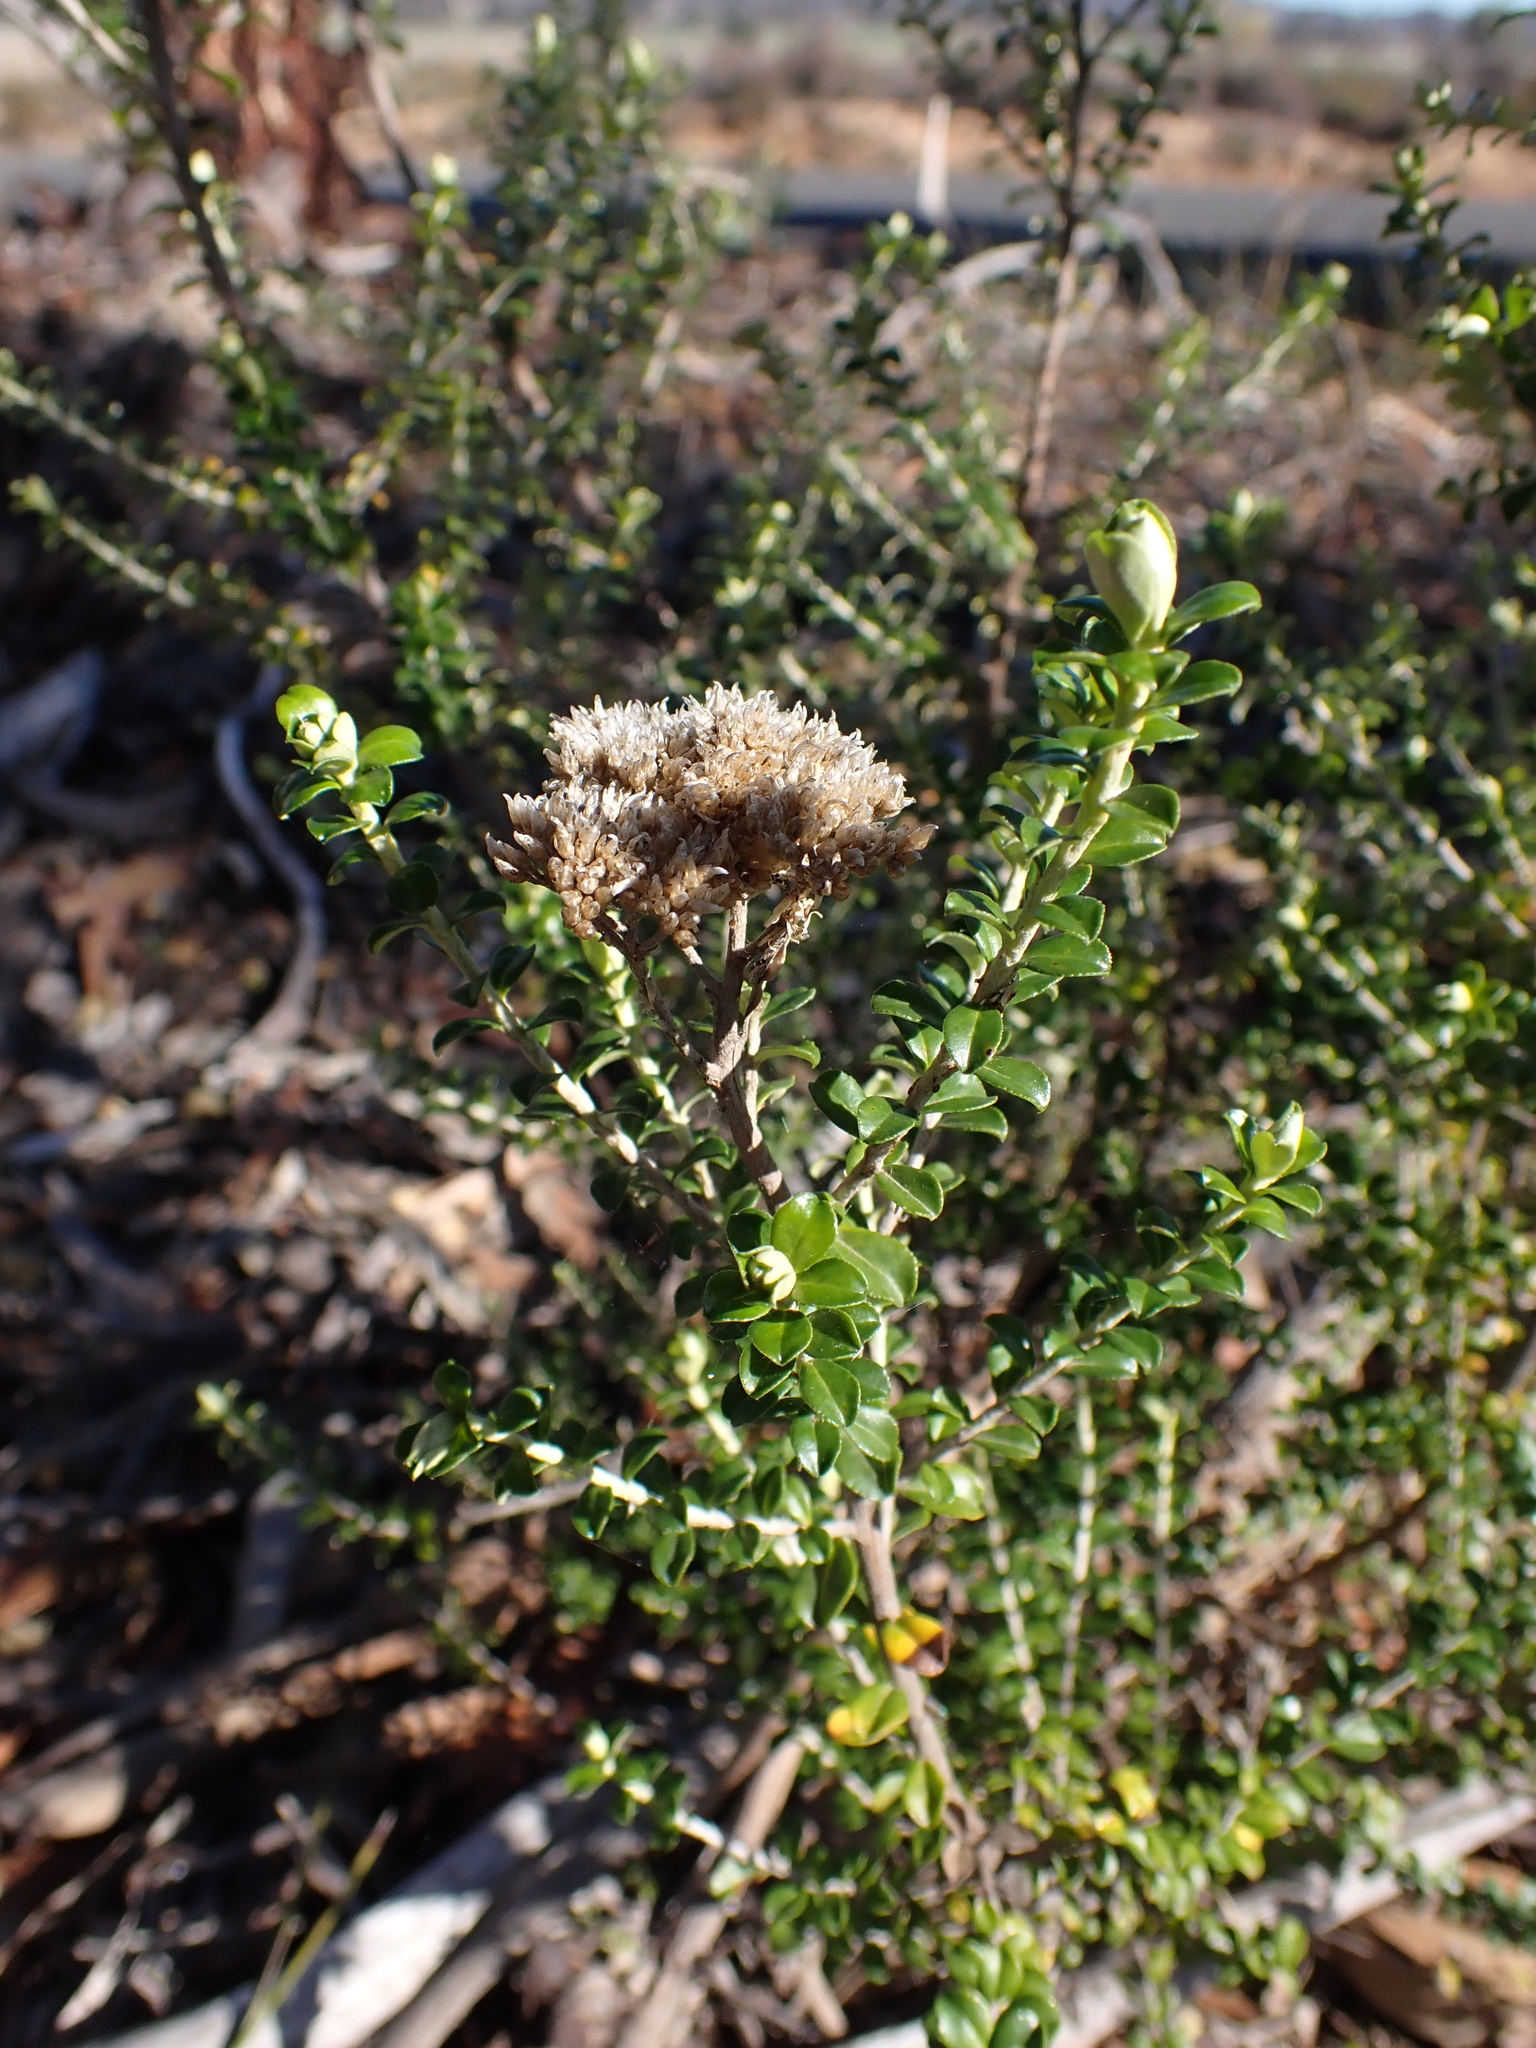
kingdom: Plantae
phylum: Tracheophyta
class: Magnoliopsida
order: Asterales
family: Asteraceae
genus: Ozothamnus
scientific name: Ozothamnus obcordatus
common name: Grey everlasting
